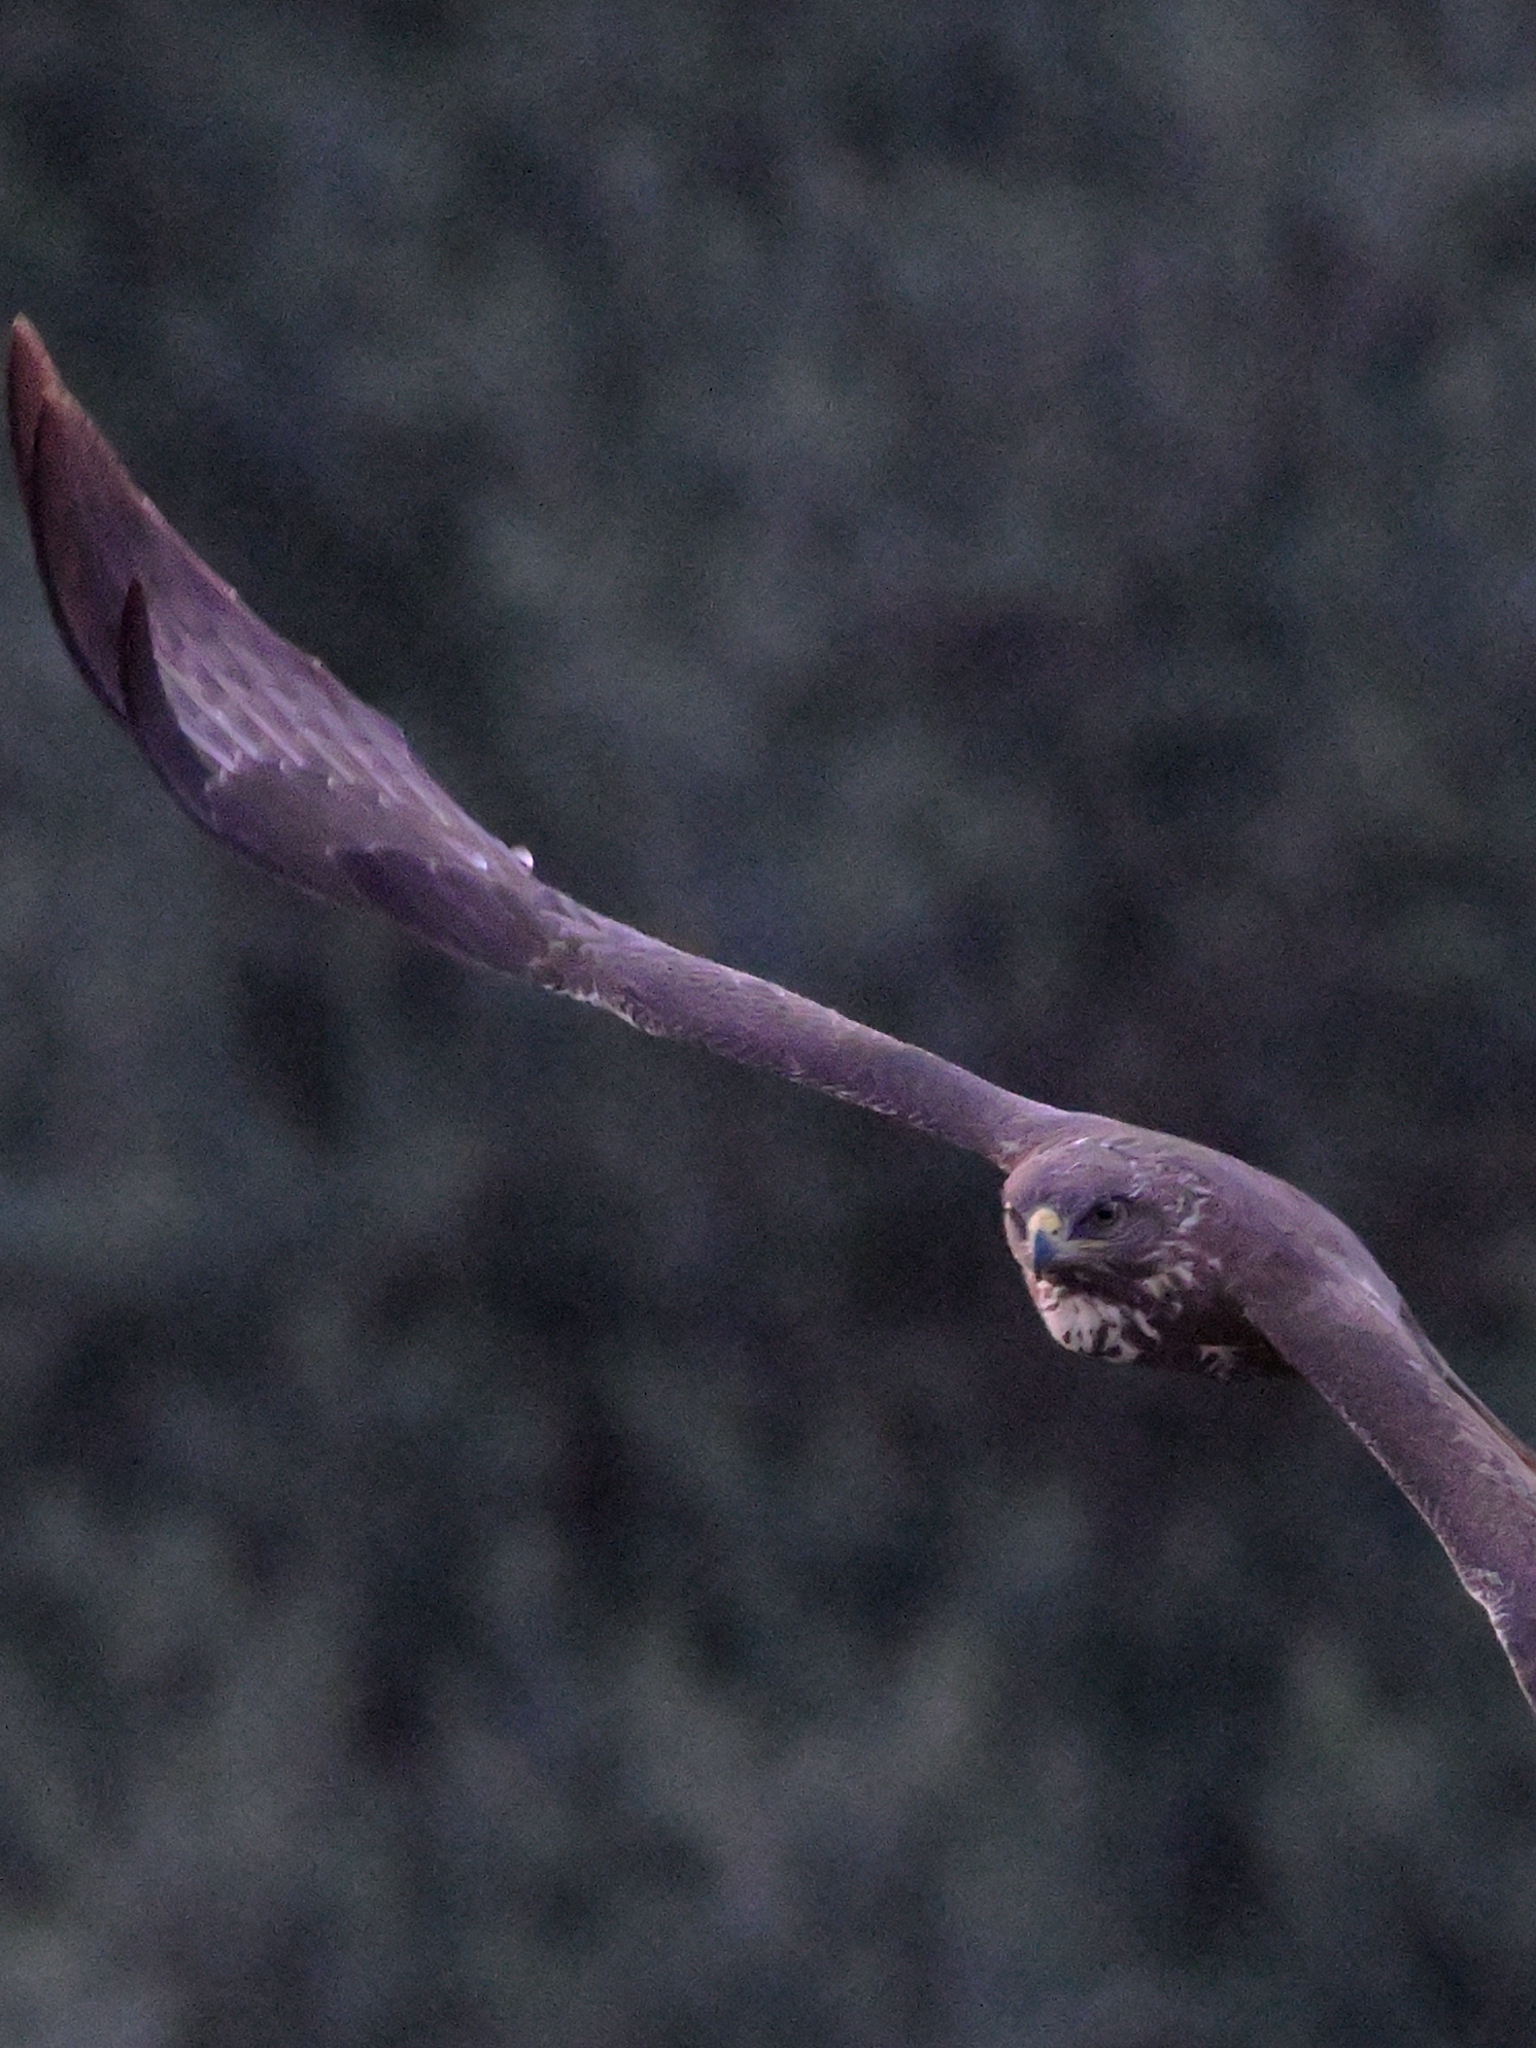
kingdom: Animalia
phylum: Chordata
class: Aves
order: Accipitriformes
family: Accipitridae
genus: Buteo
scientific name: Buteo buteo
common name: Common buzzard
